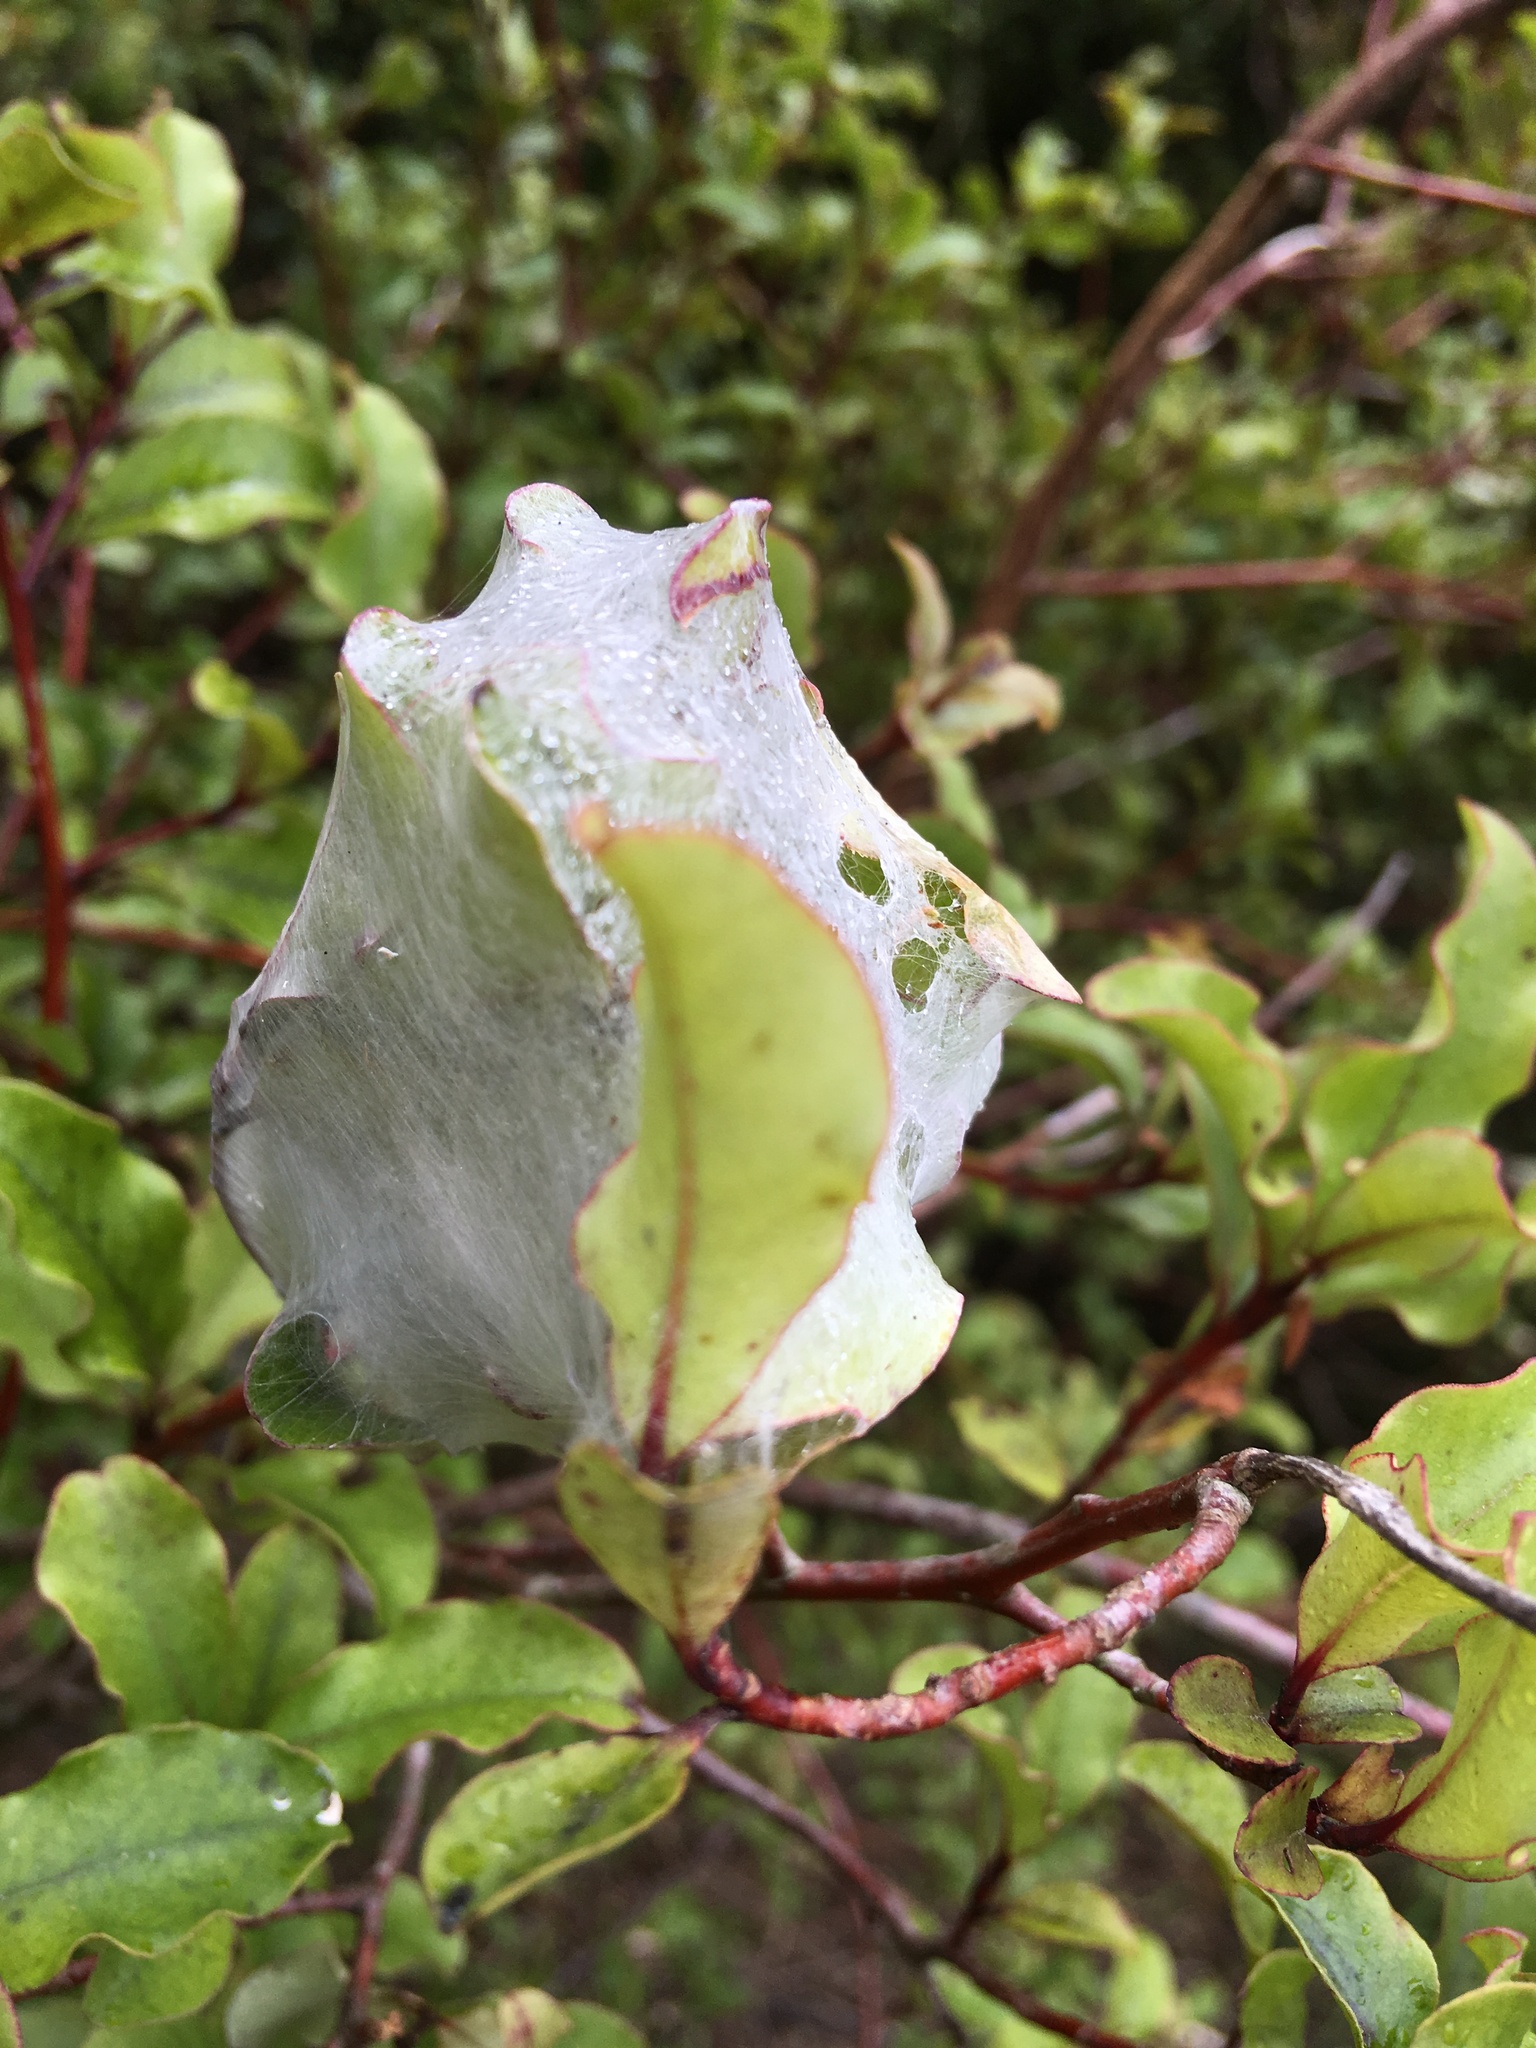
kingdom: Animalia
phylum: Arthropoda
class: Arachnida
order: Araneae
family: Pisauridae
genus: Dolomedes
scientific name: Dolomedes minor
